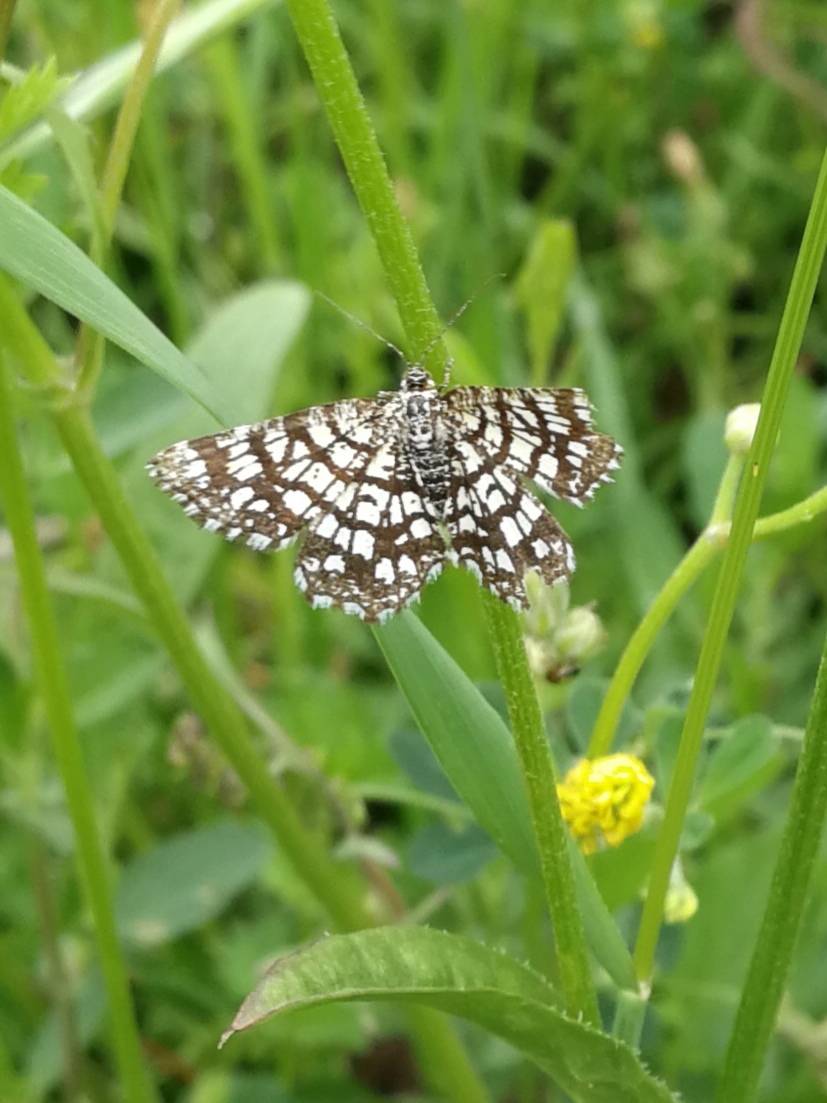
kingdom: Animalia
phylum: Arthropoda
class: Insecta
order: Lepidoptera
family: Geometridae
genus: Chiasmia
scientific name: Chiasmia clathrata
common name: Latticed heath
